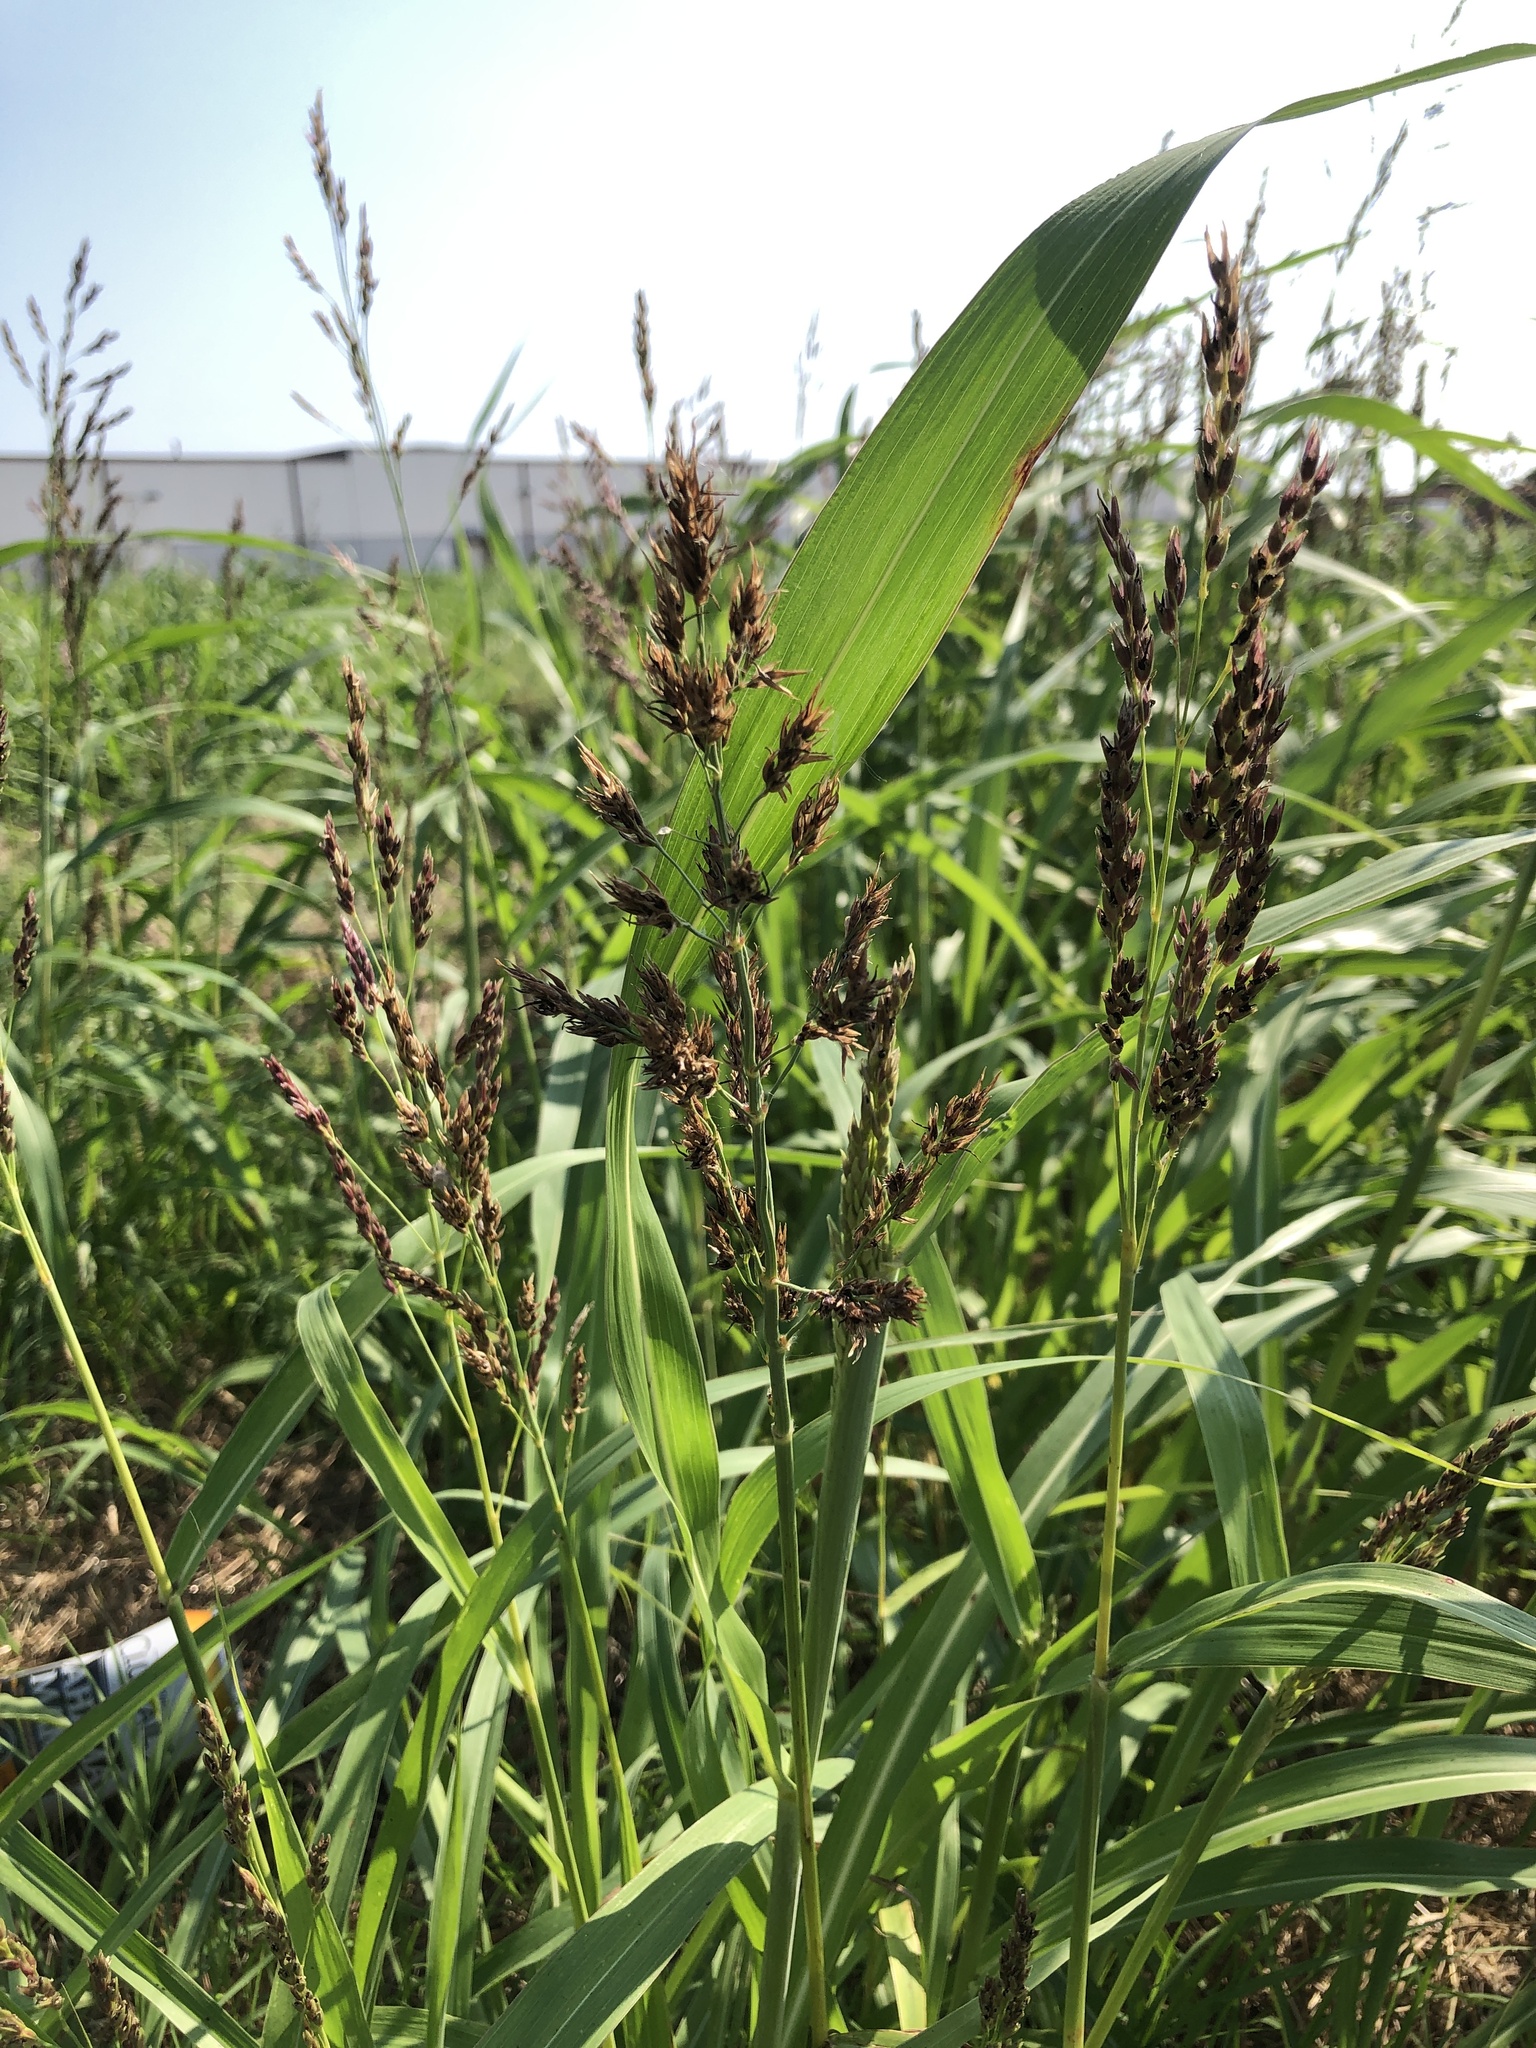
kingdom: Plantae
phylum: Tracheophyta
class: Liliopsida
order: Poales
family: Poaceae
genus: Sorghum
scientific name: Sorghum halepense
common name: Johnson-grass
